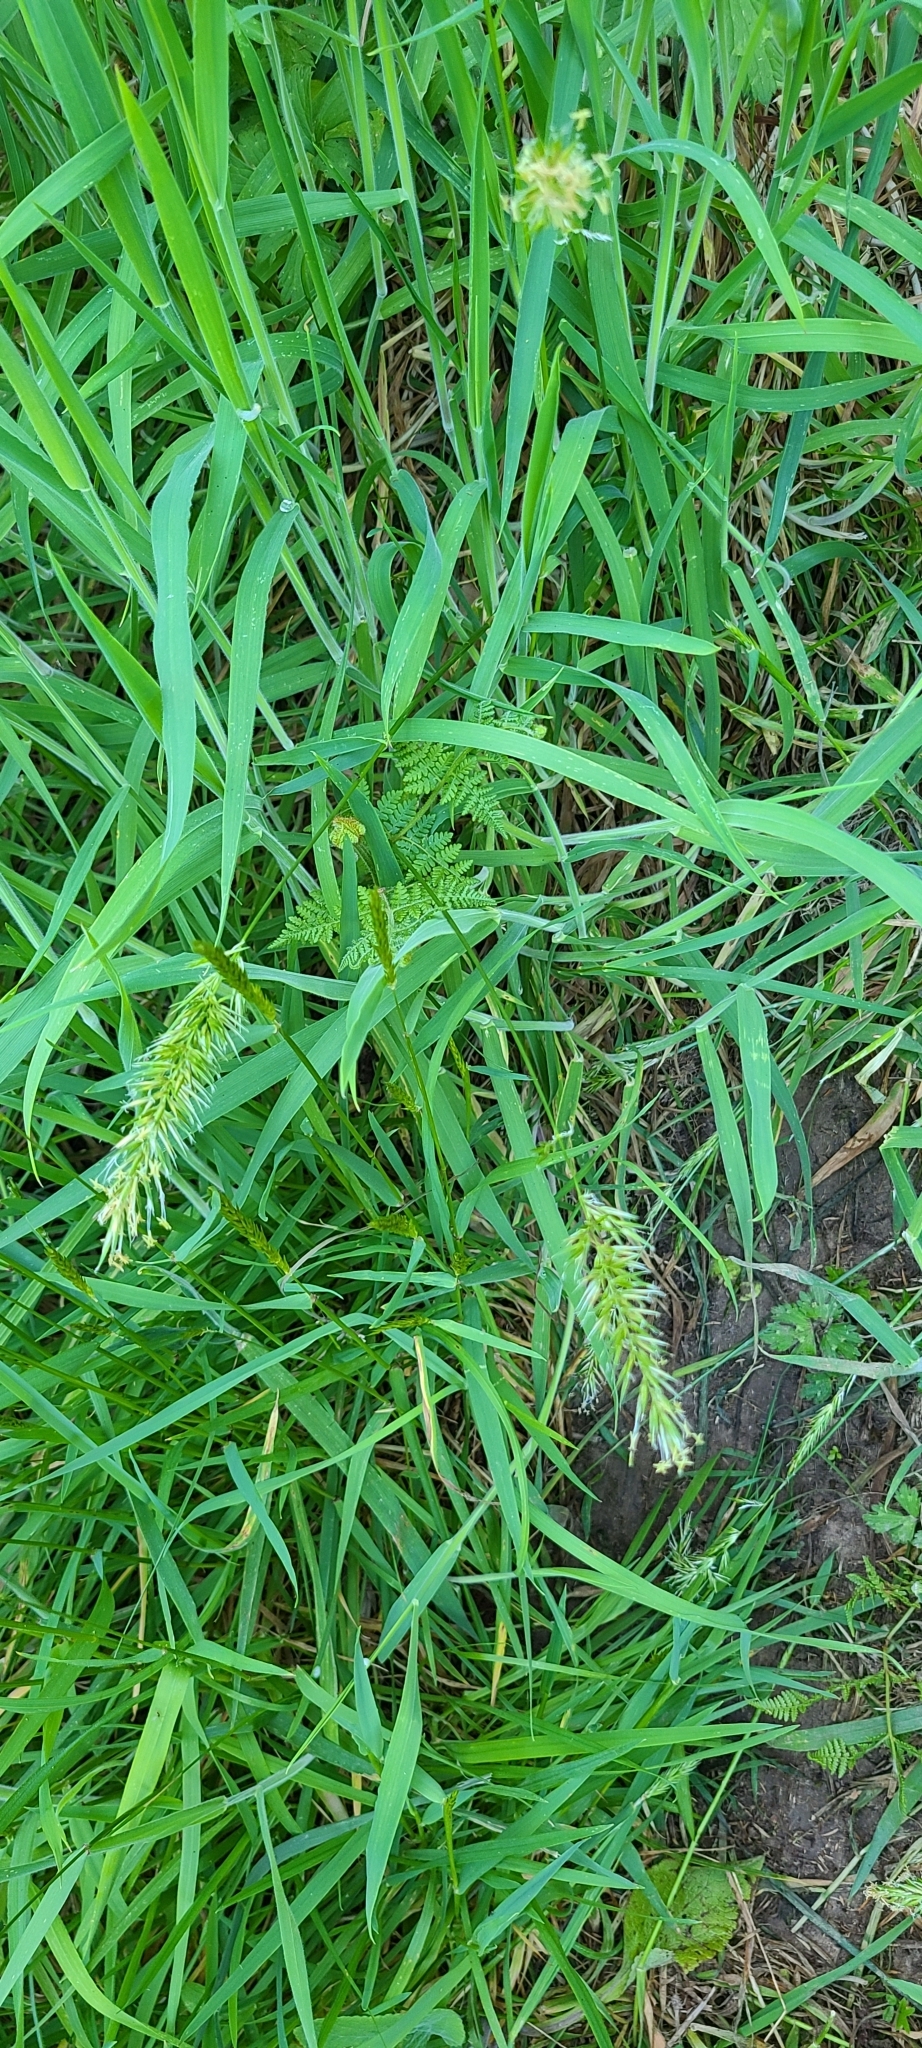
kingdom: Plantae
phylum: Tracheophyta
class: Liliopsida
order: Poales
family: Poaceae
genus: Anthoxanthum
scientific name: Anthoxanthum odoratum
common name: Sweet vernalgrass
